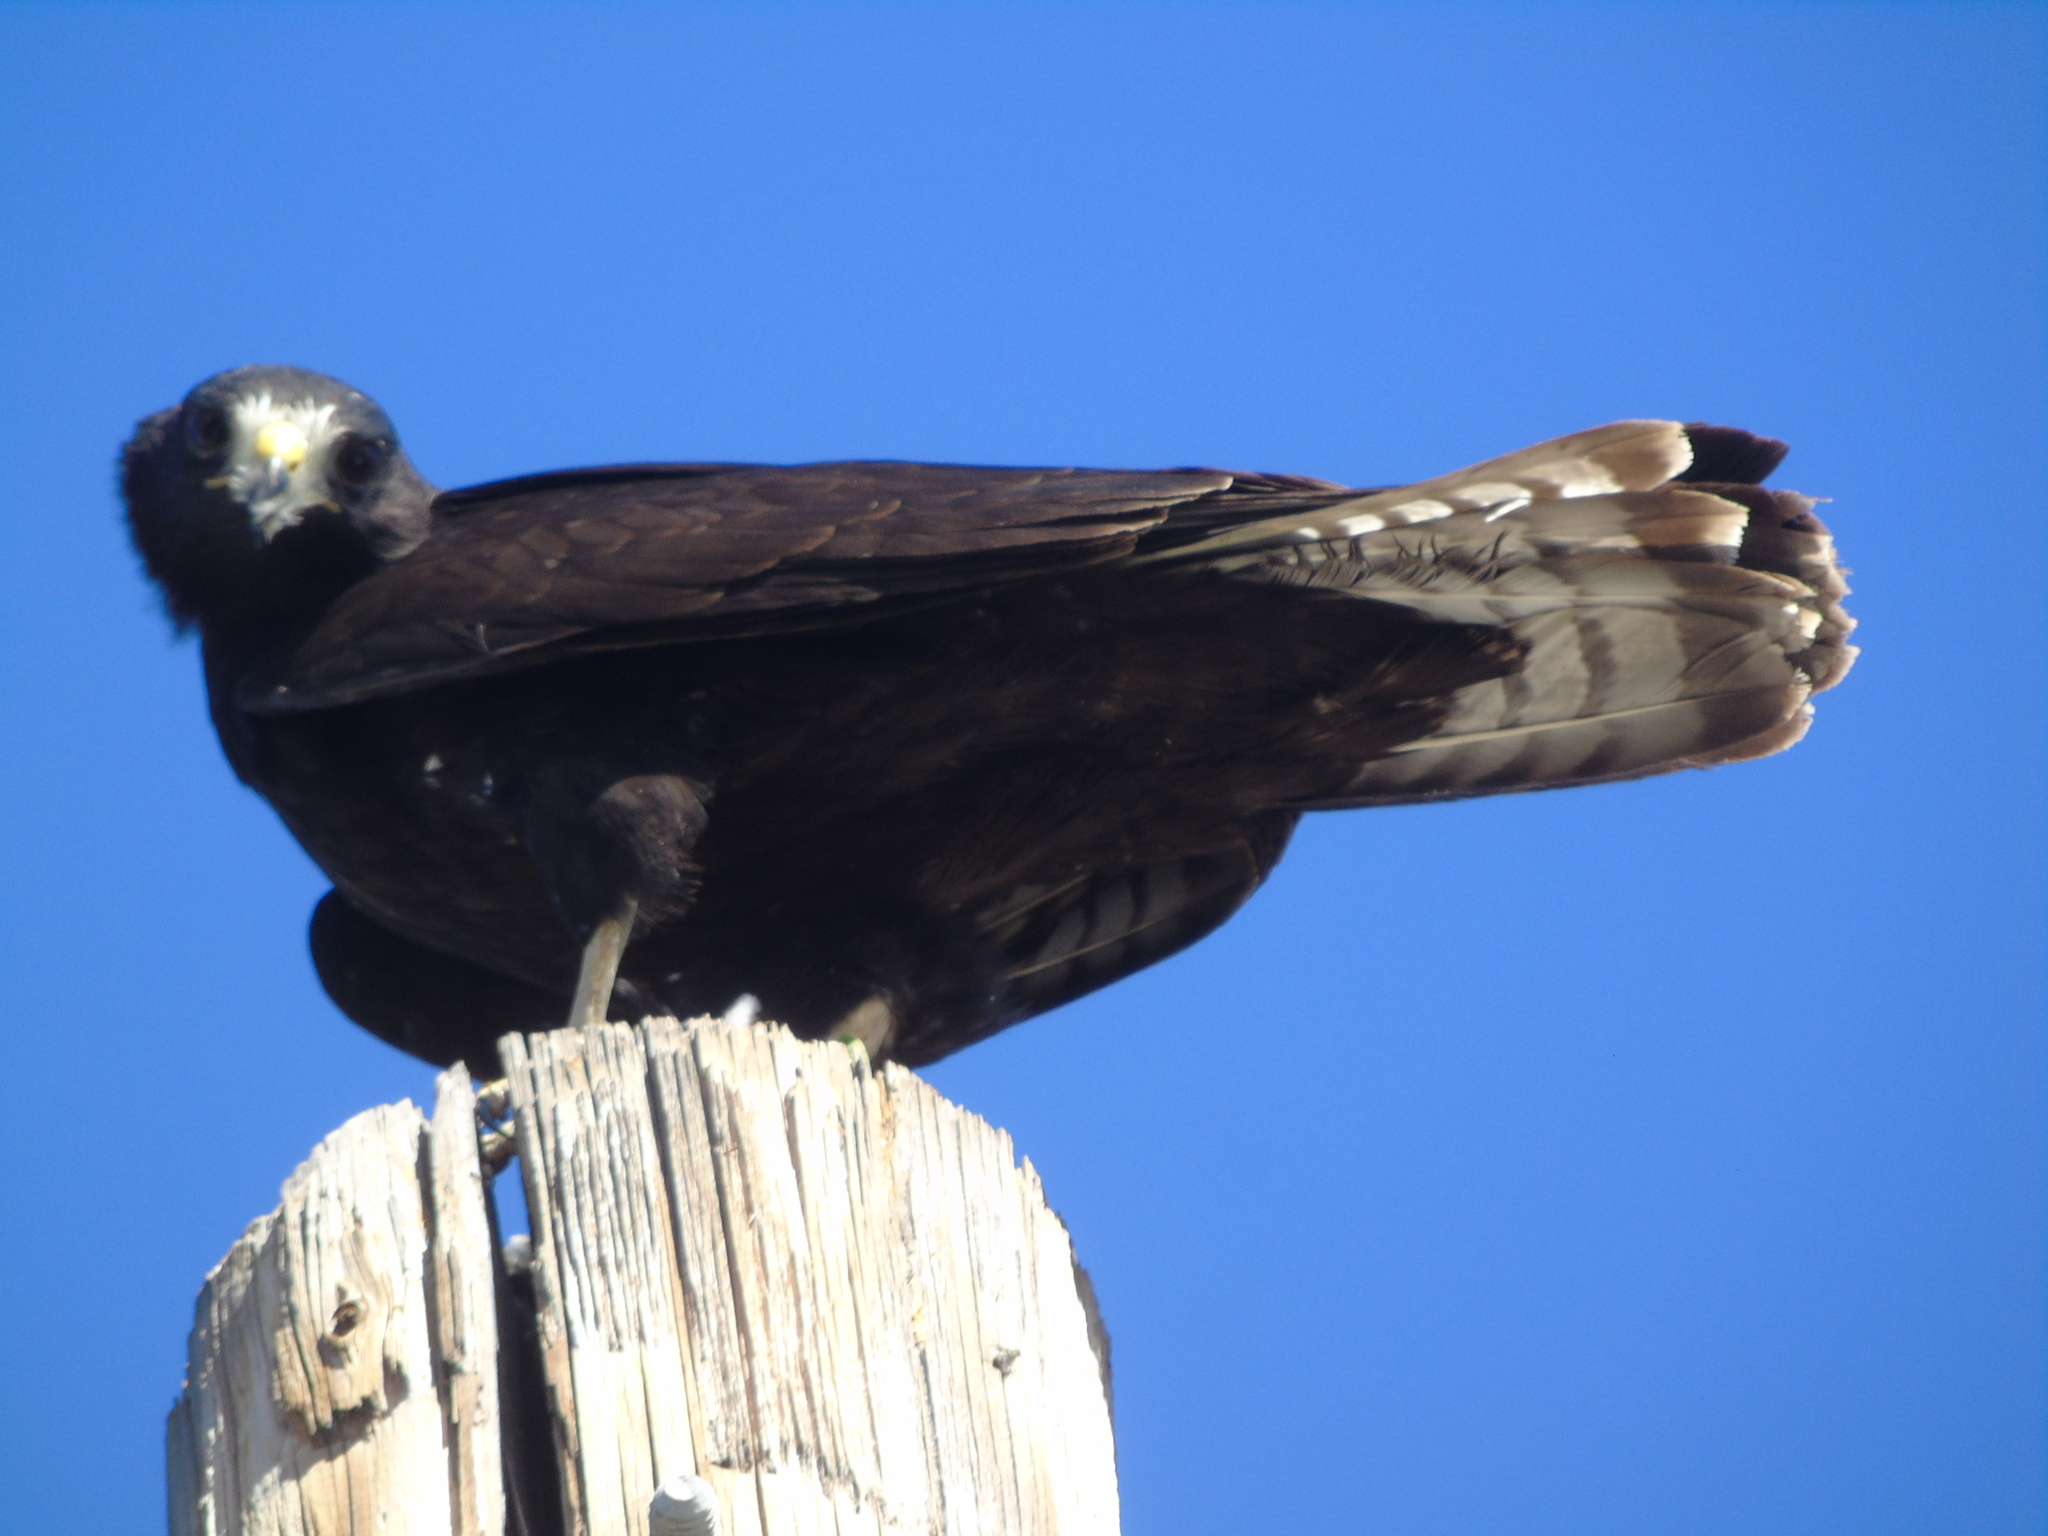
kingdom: Animalia
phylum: Chordata
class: Aves
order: Accipitriformes
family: Accipitridae
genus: Buteo
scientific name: Buteo albonotatus
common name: Zone-tailed hawk
